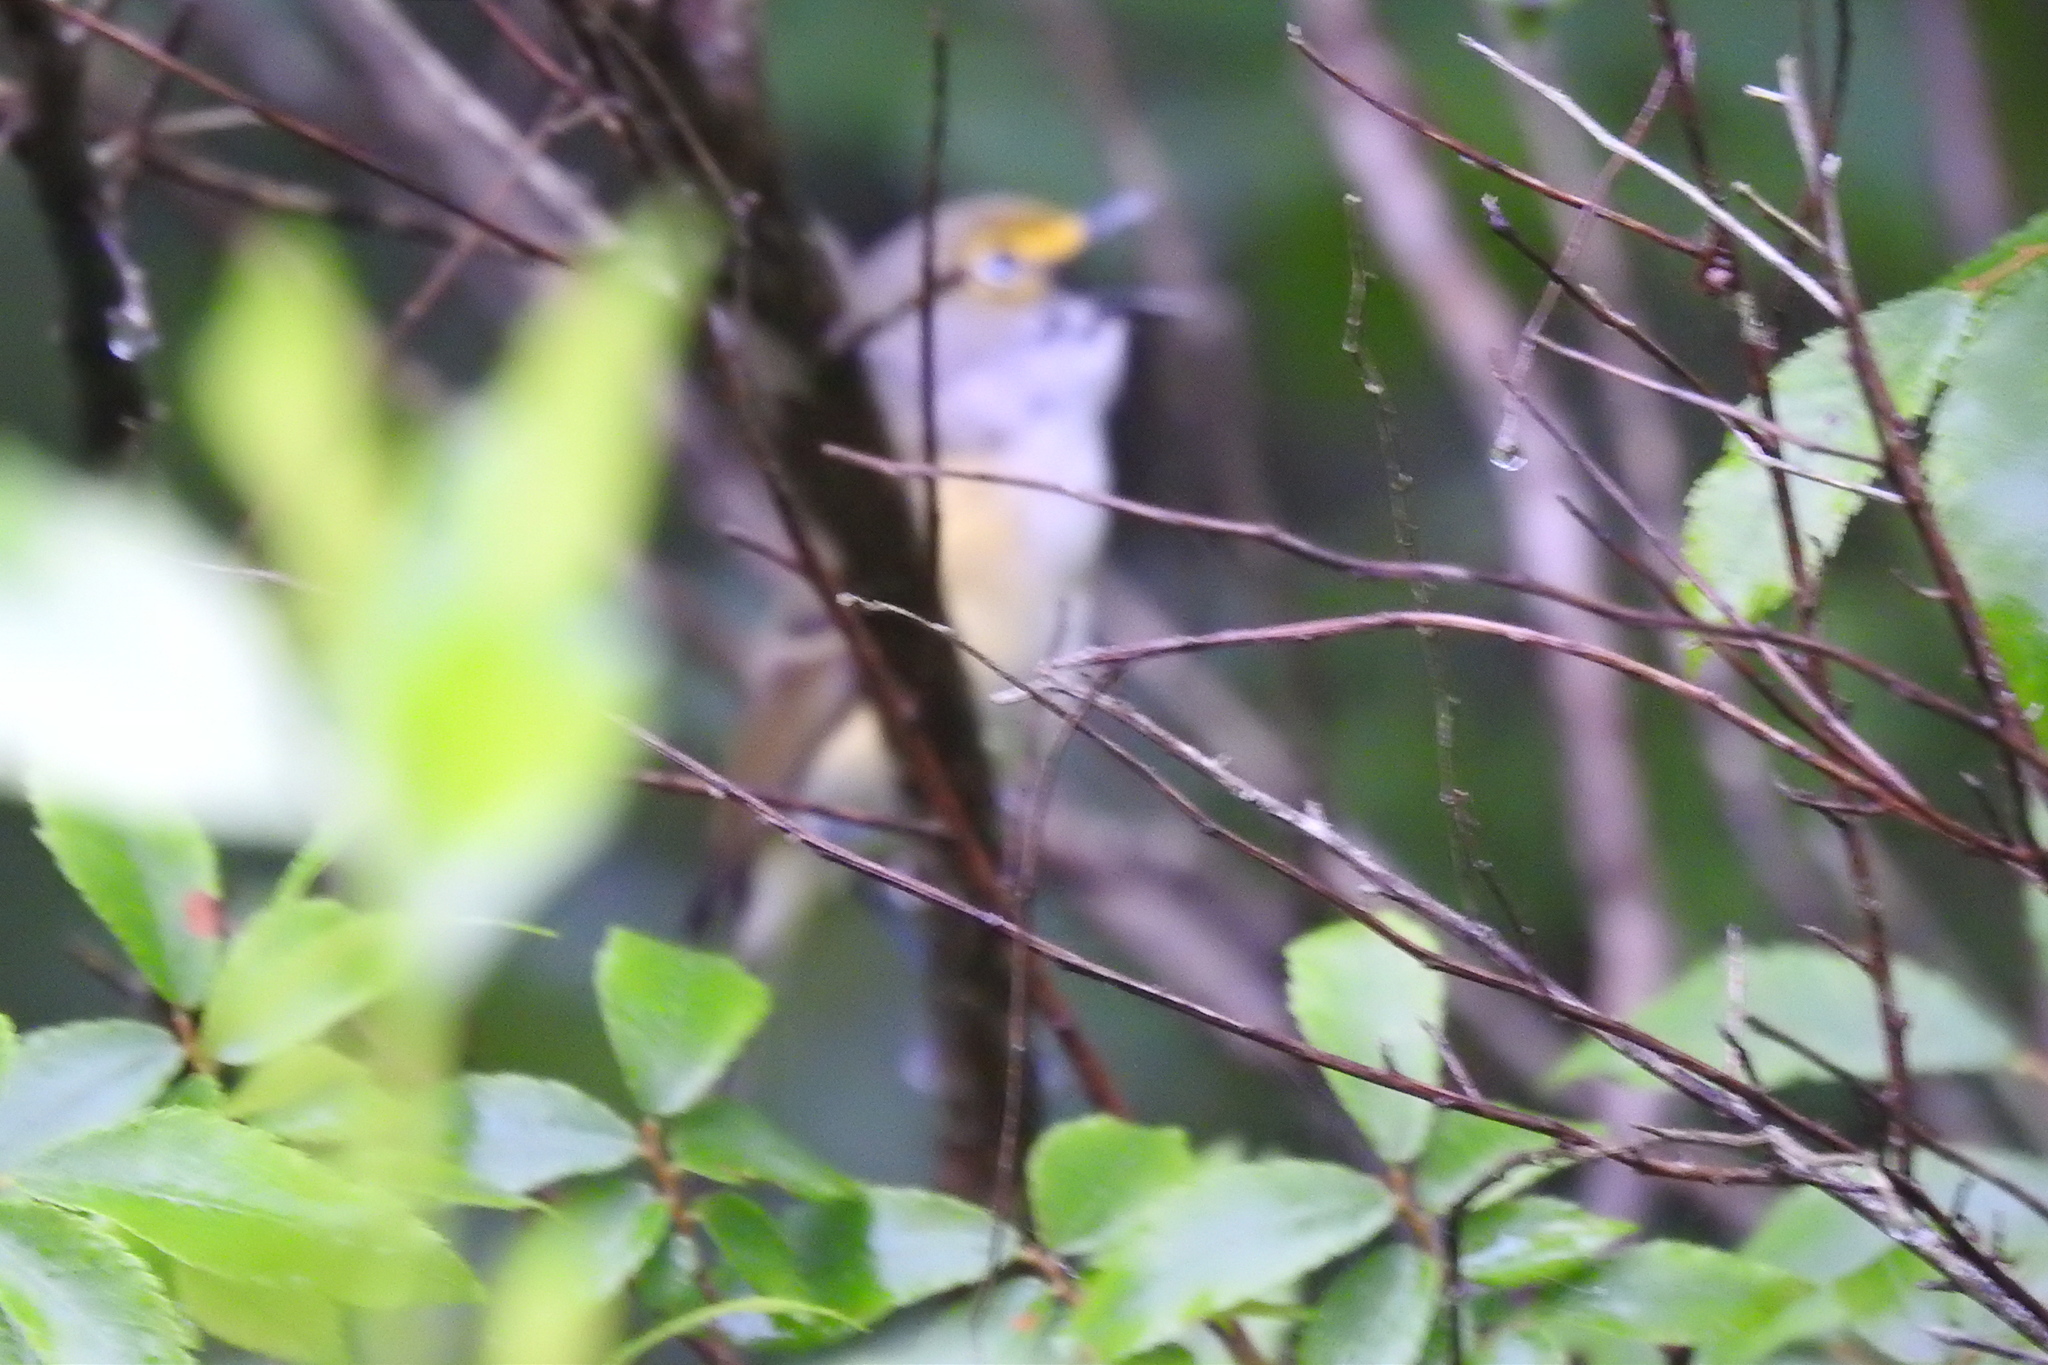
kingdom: Animalia
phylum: Chordata
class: Aves
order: Passeriformes
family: Vireonidae
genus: Vireo
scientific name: Vireo griseus
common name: White-eyed vireo
